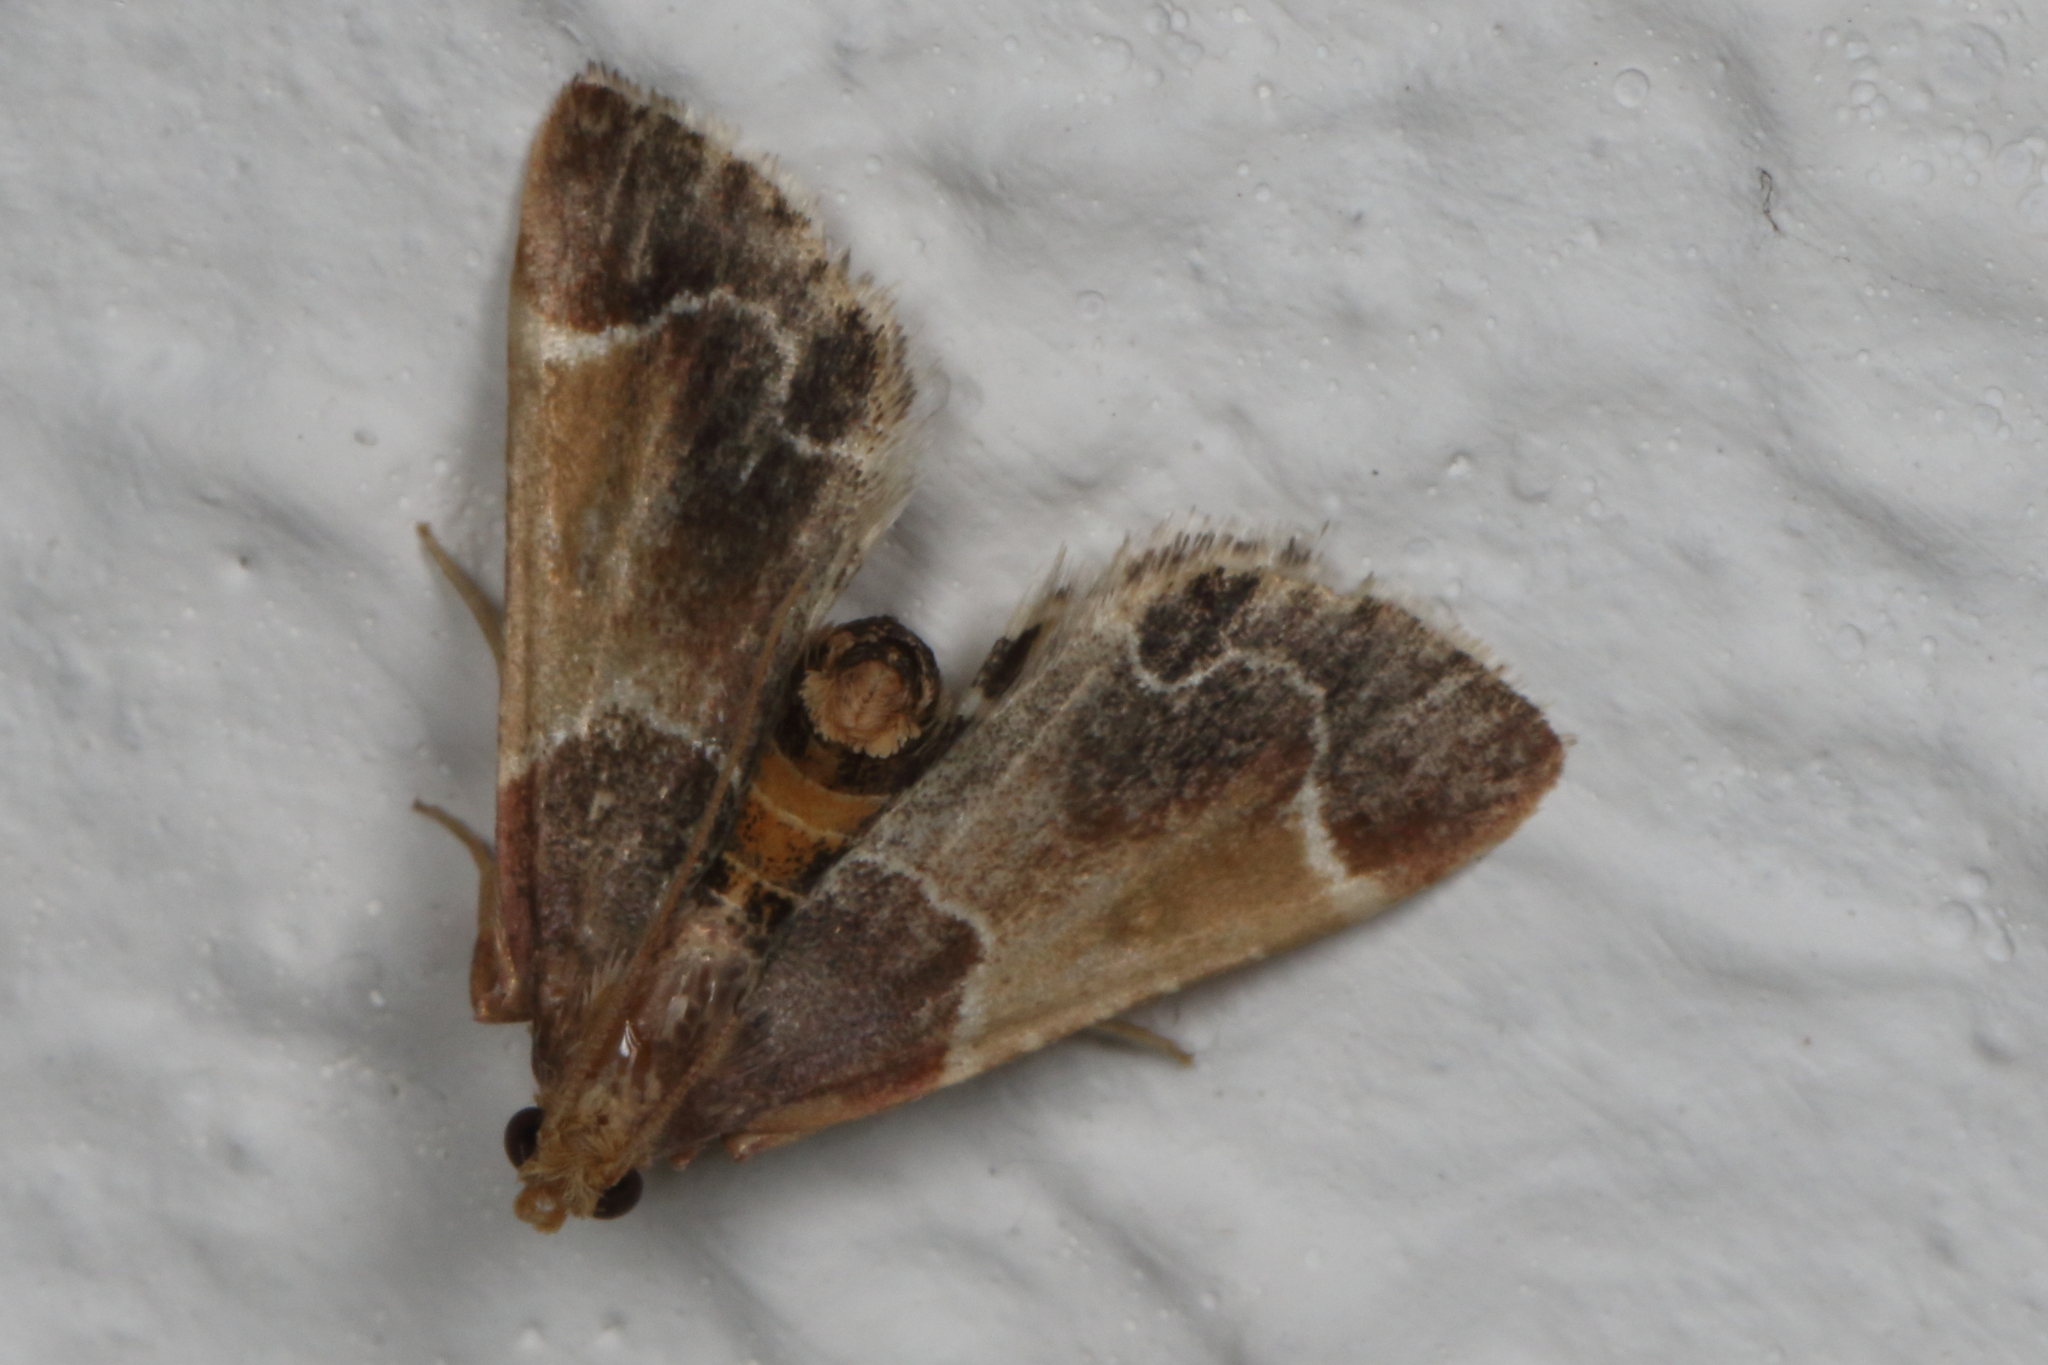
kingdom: Animalia
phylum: Arthropoda
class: Insecta
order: Lepidoptera
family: Pyralidae
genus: Pyralis
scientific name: Pyralis farinalis
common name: Meal moth
